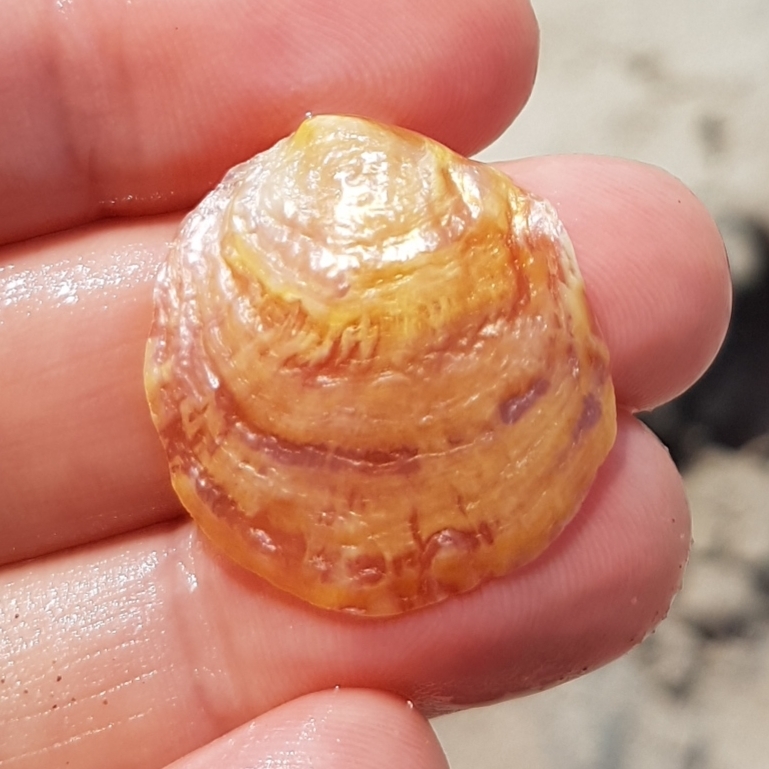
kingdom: Animalia
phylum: Mollusca
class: Bivalvia
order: Pectinida
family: Anomiidae
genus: Anomia
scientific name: Anomia ephippium
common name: Saddle oyster
